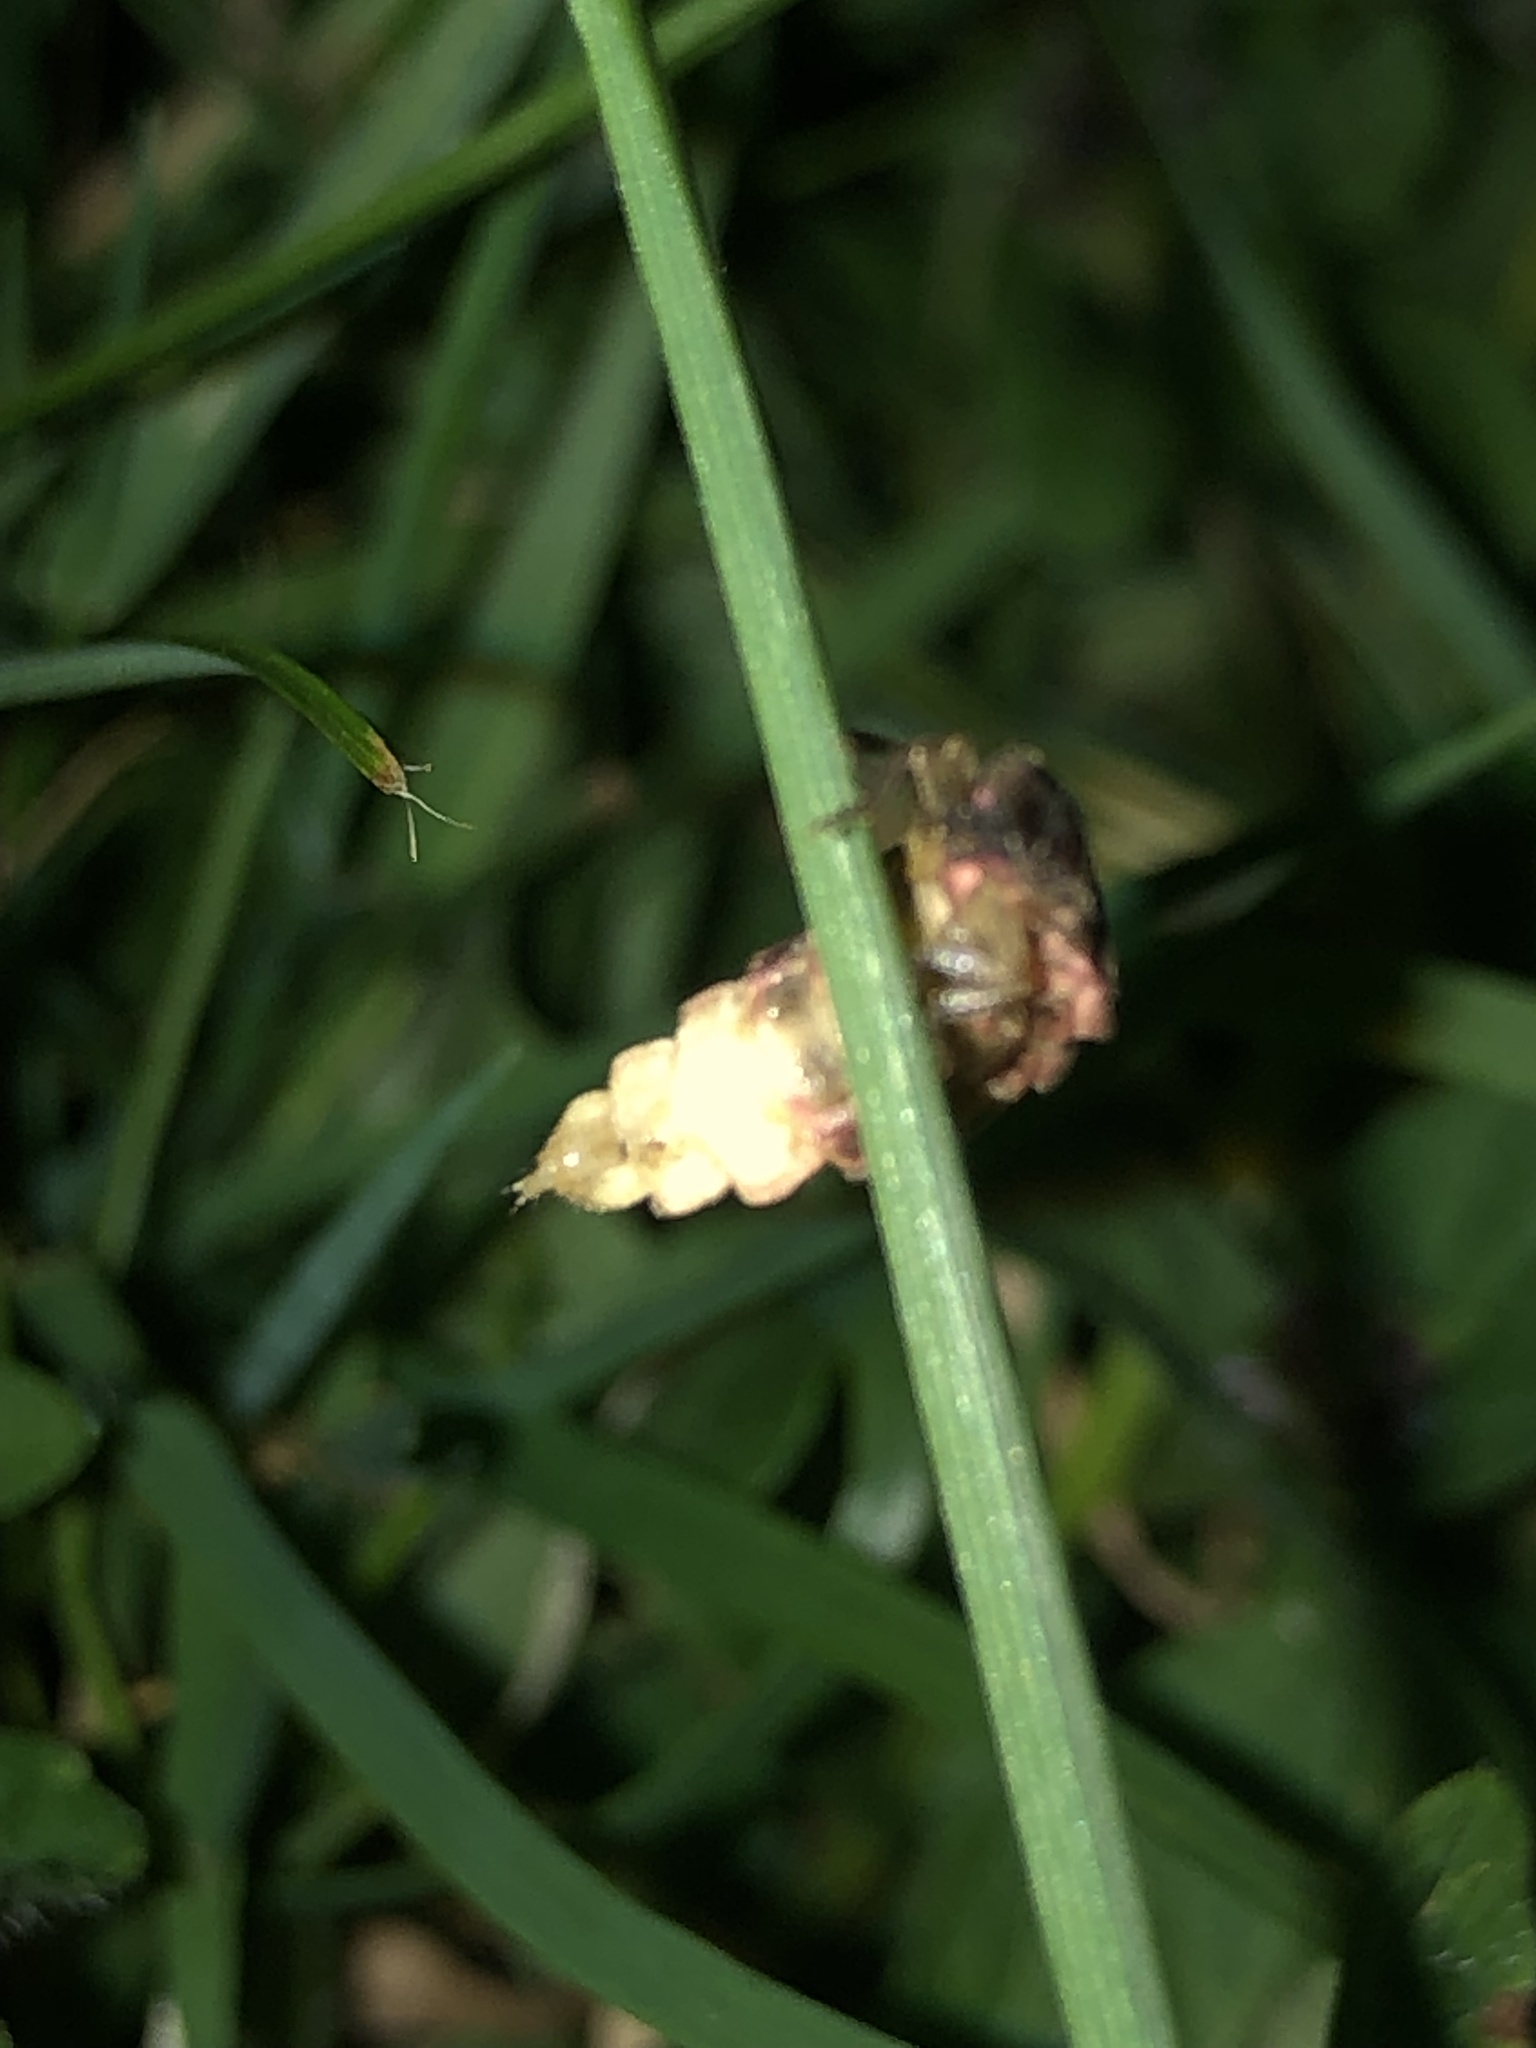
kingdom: Animalia
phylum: Arthropoda
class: Insecta
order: Coleoptera
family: Lampyridae
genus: Lampyris
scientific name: Lampyris noctiluca
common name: Glow-worm
